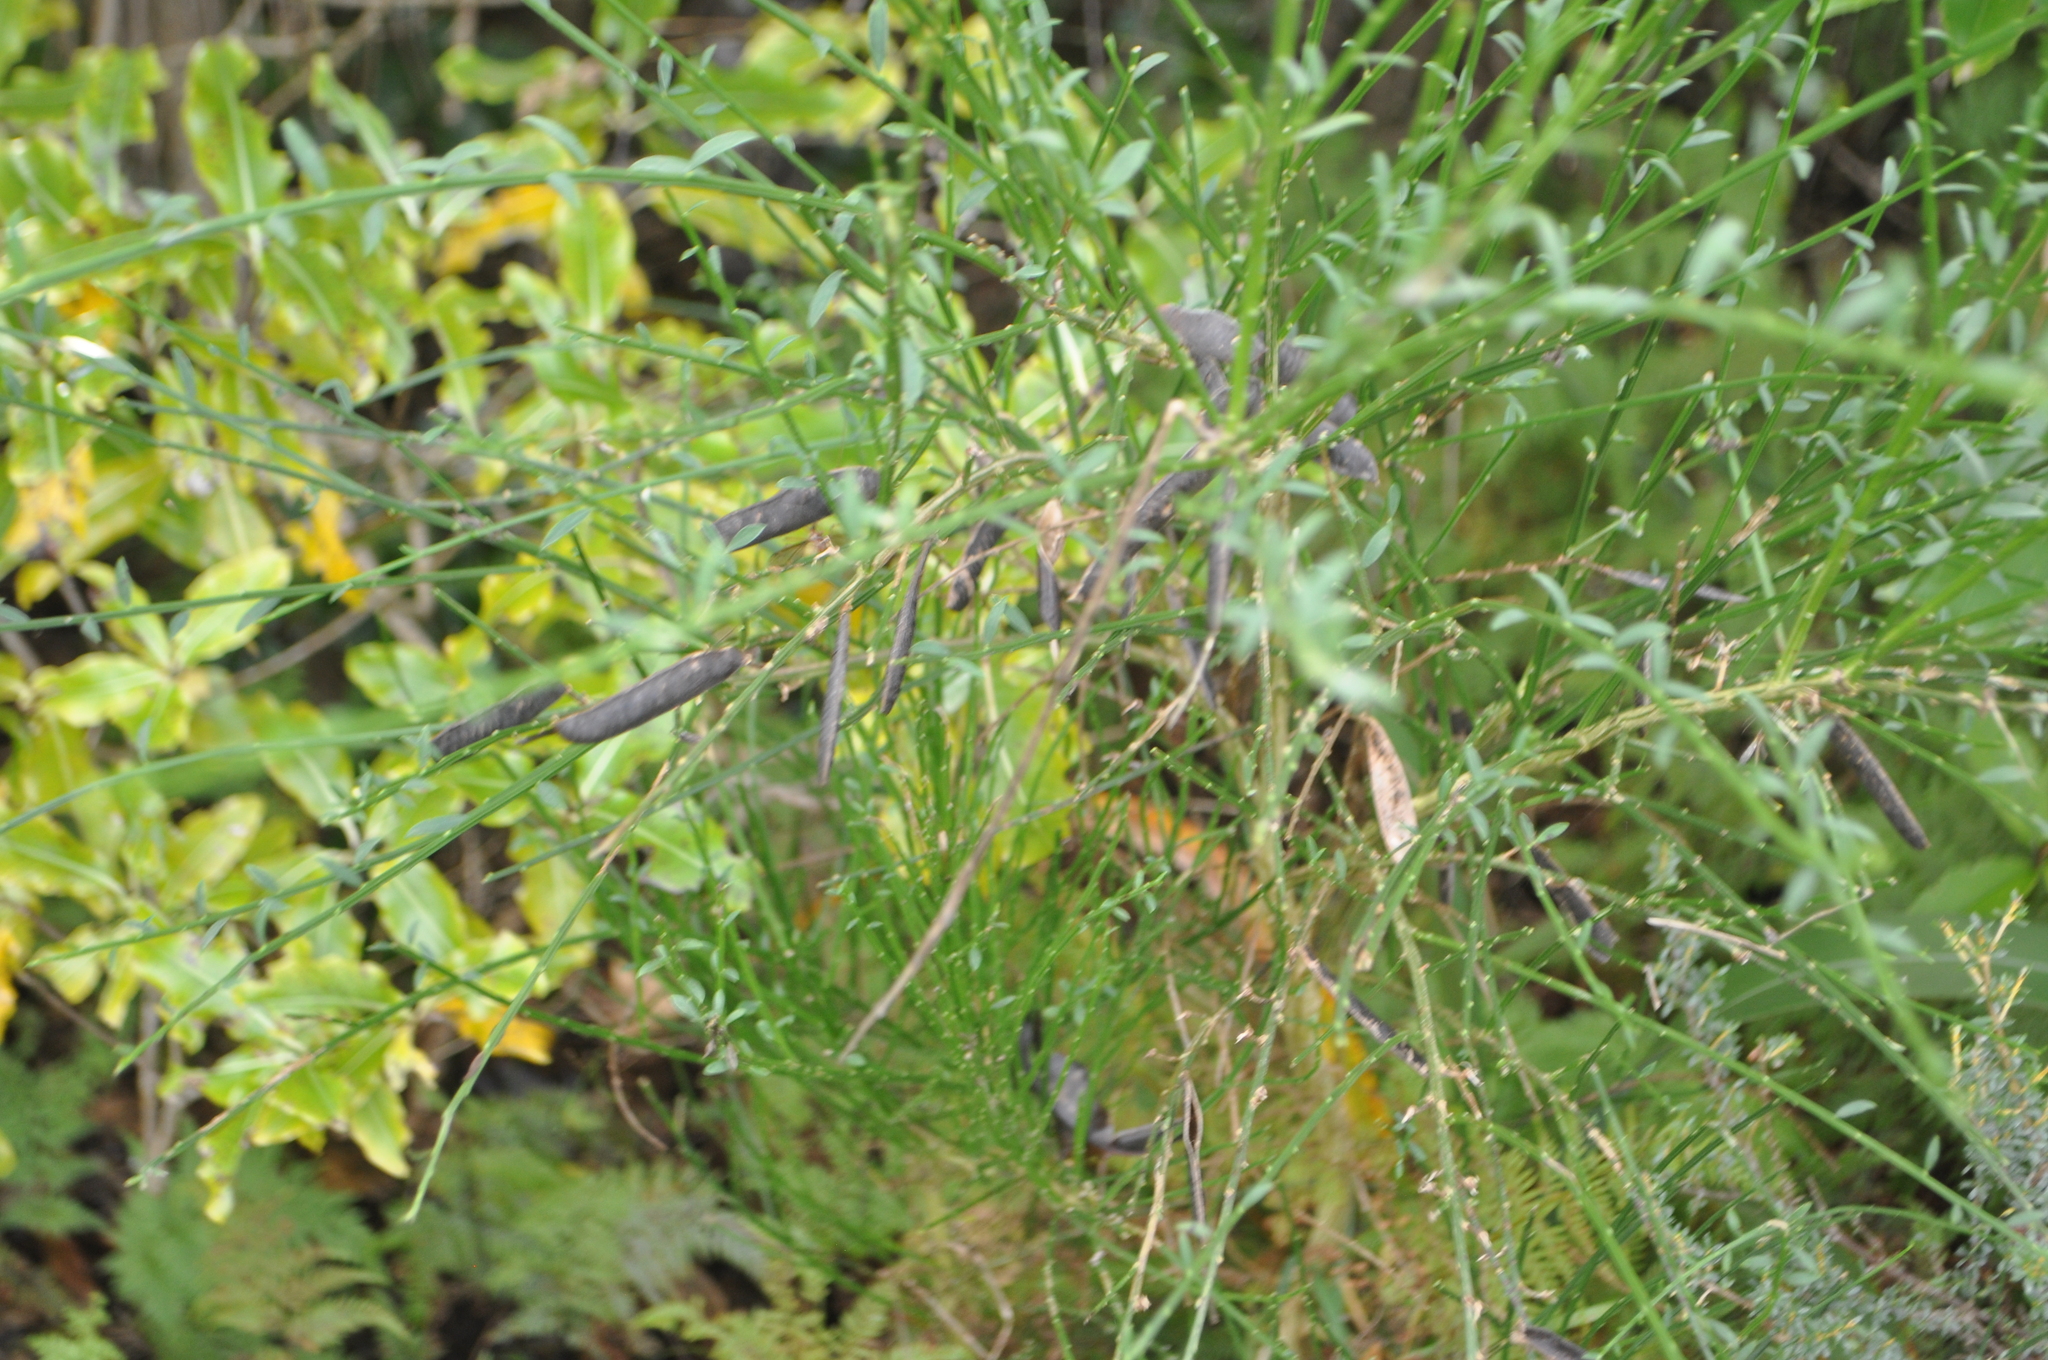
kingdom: Plantae
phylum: Tracheophyta
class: Magnoliopsida
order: Fabales
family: Fabaceae
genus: Cytisus
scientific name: Cytisus scoparius
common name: Scotch broom
